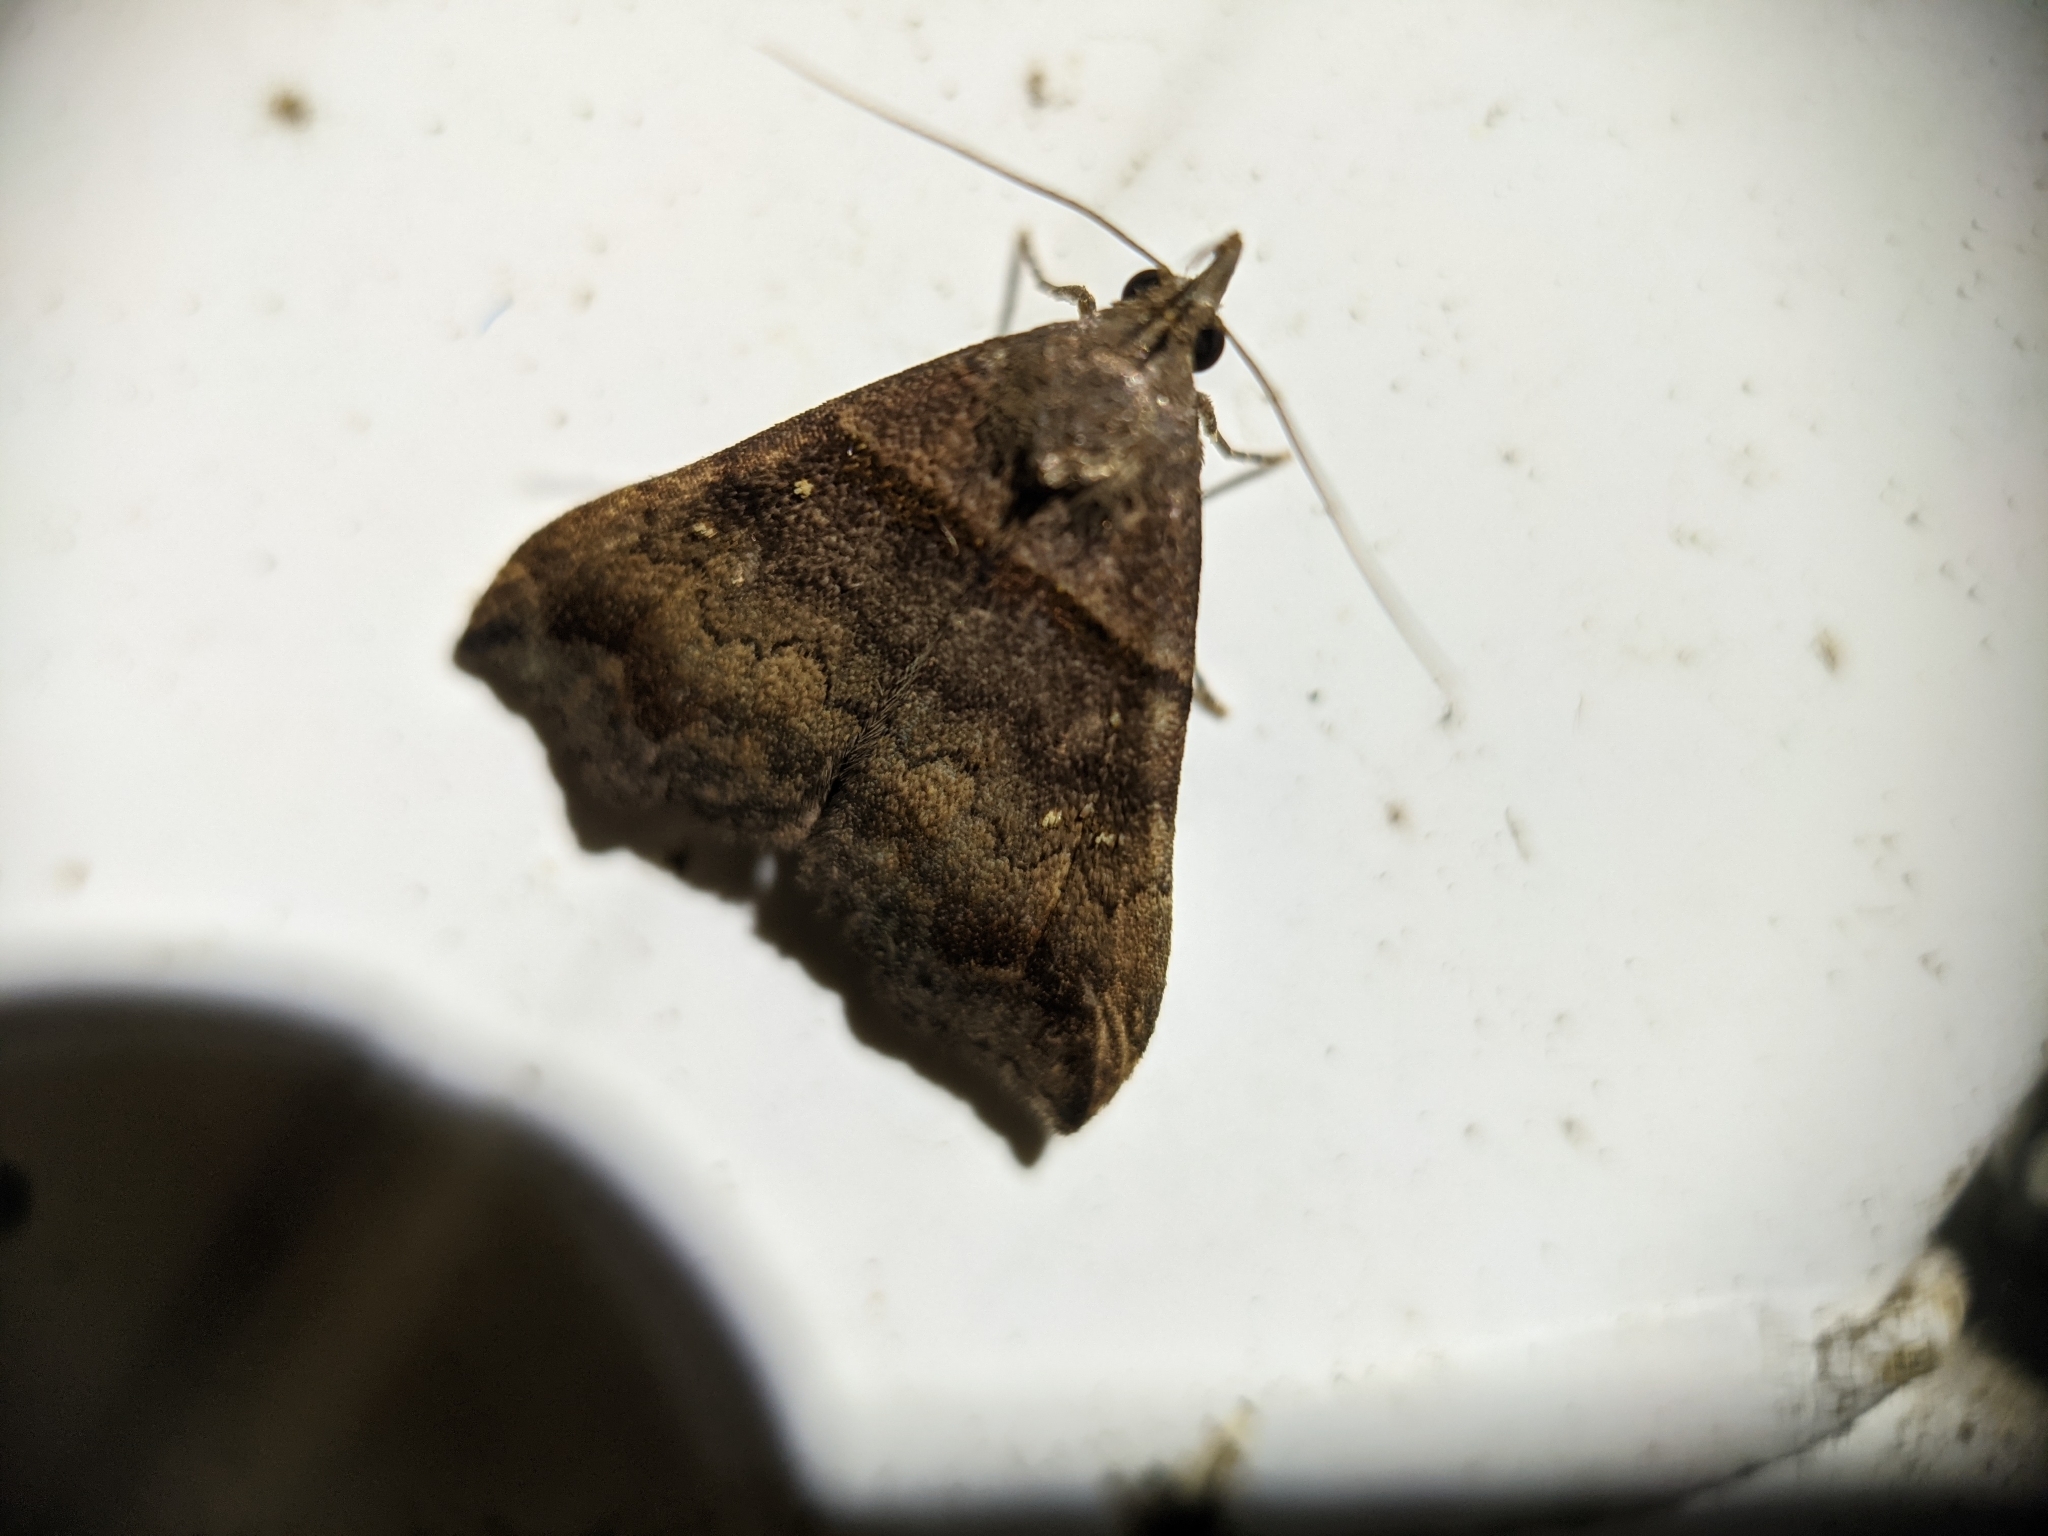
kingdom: Animalia
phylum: Arthropoda
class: Insecta
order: Lepidoptera
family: Erebidae
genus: Lascoria
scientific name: Lascoria ambigualis
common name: Ambiguous moth
